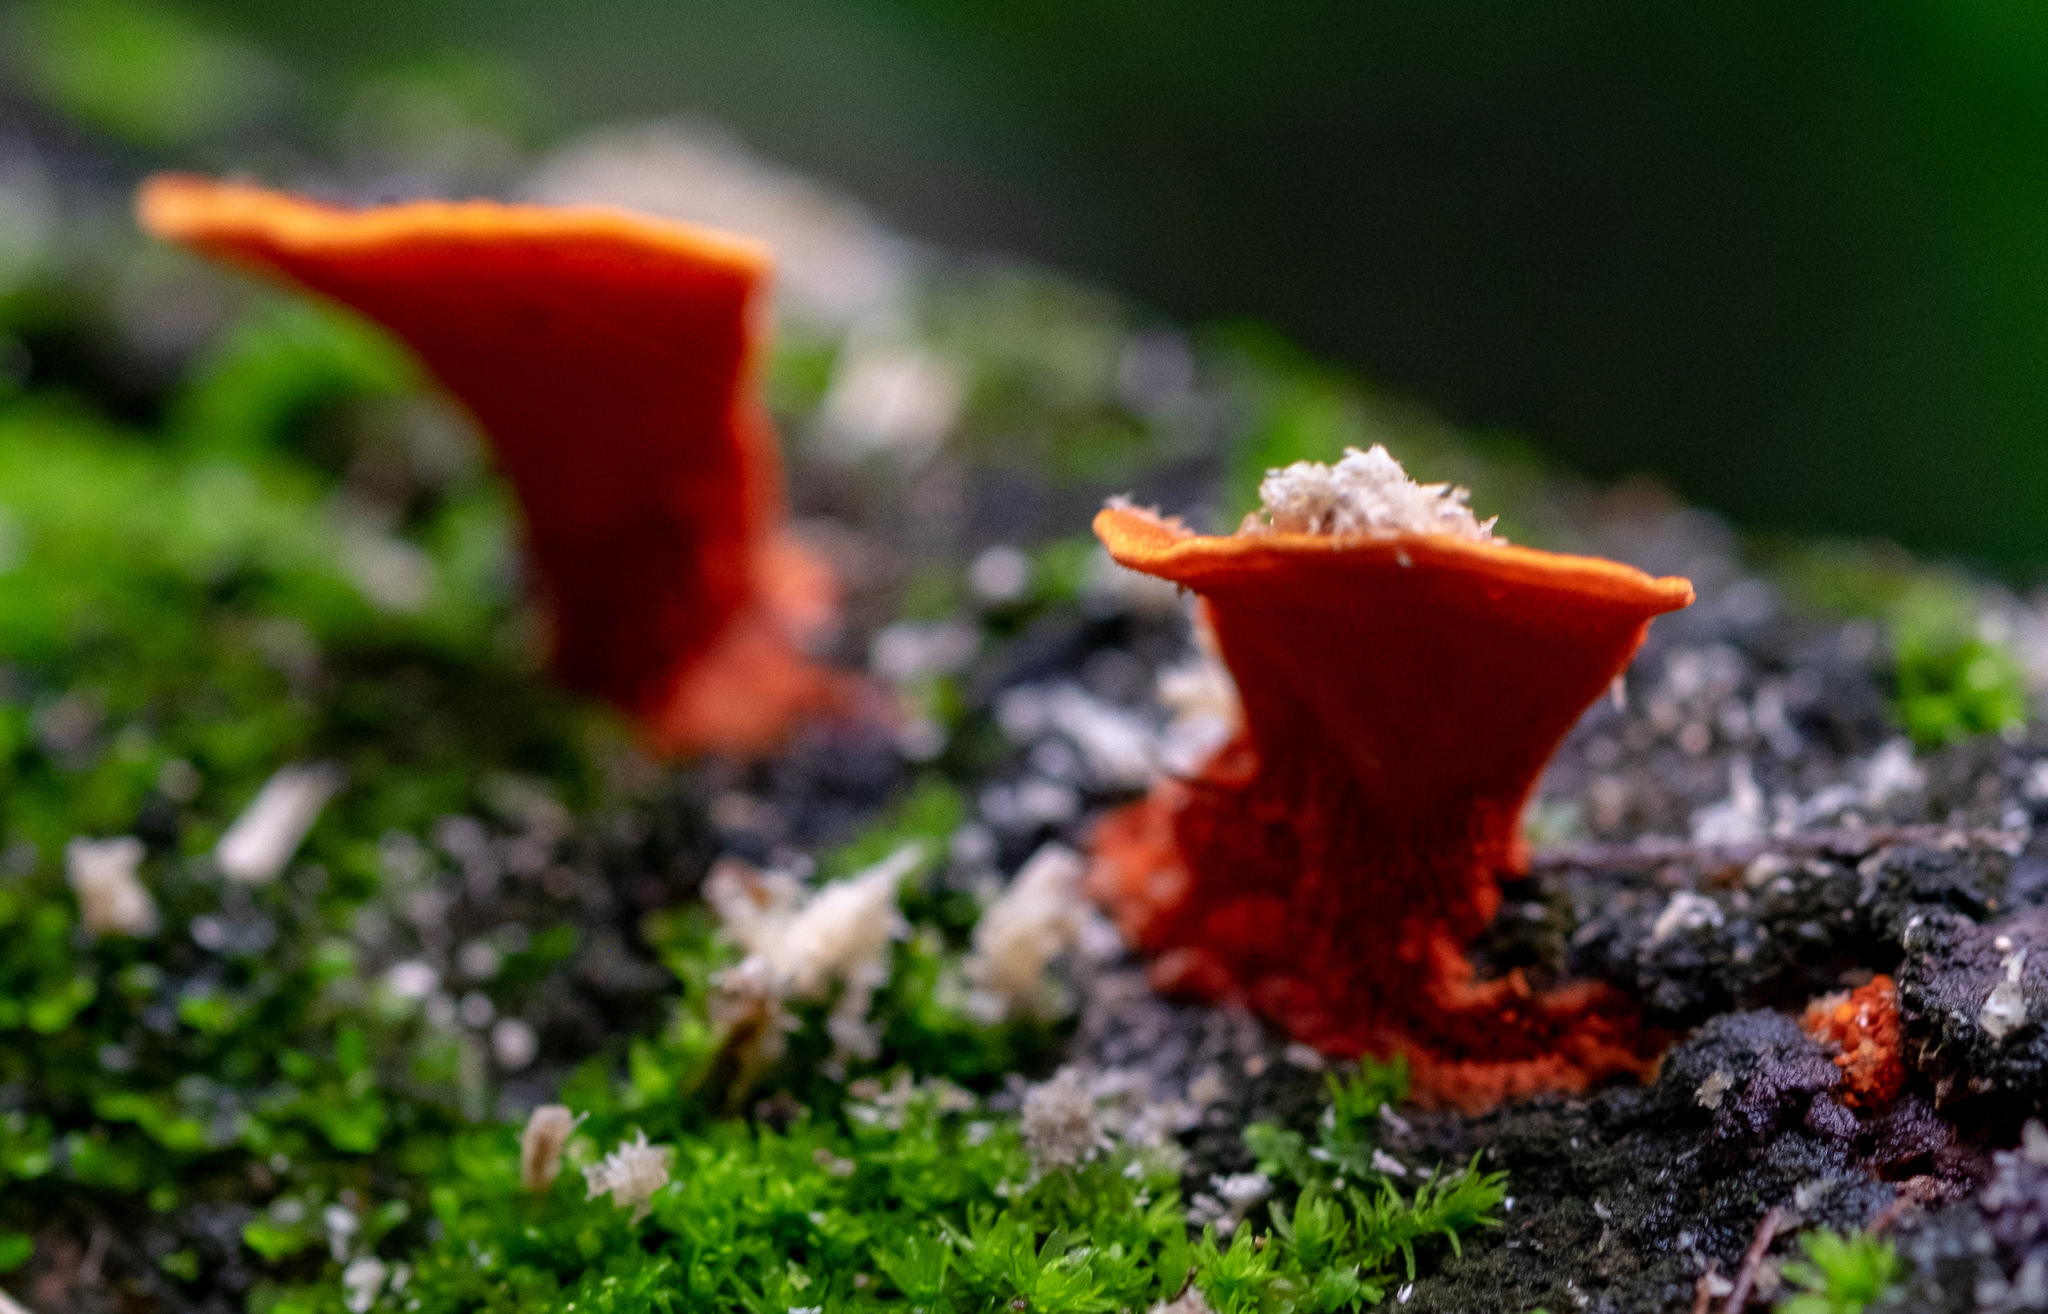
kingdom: Fungi
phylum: Basidiomycota
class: Agaricomycetes
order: Polyporales
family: Polyporaceae
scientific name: Polyporaceae
